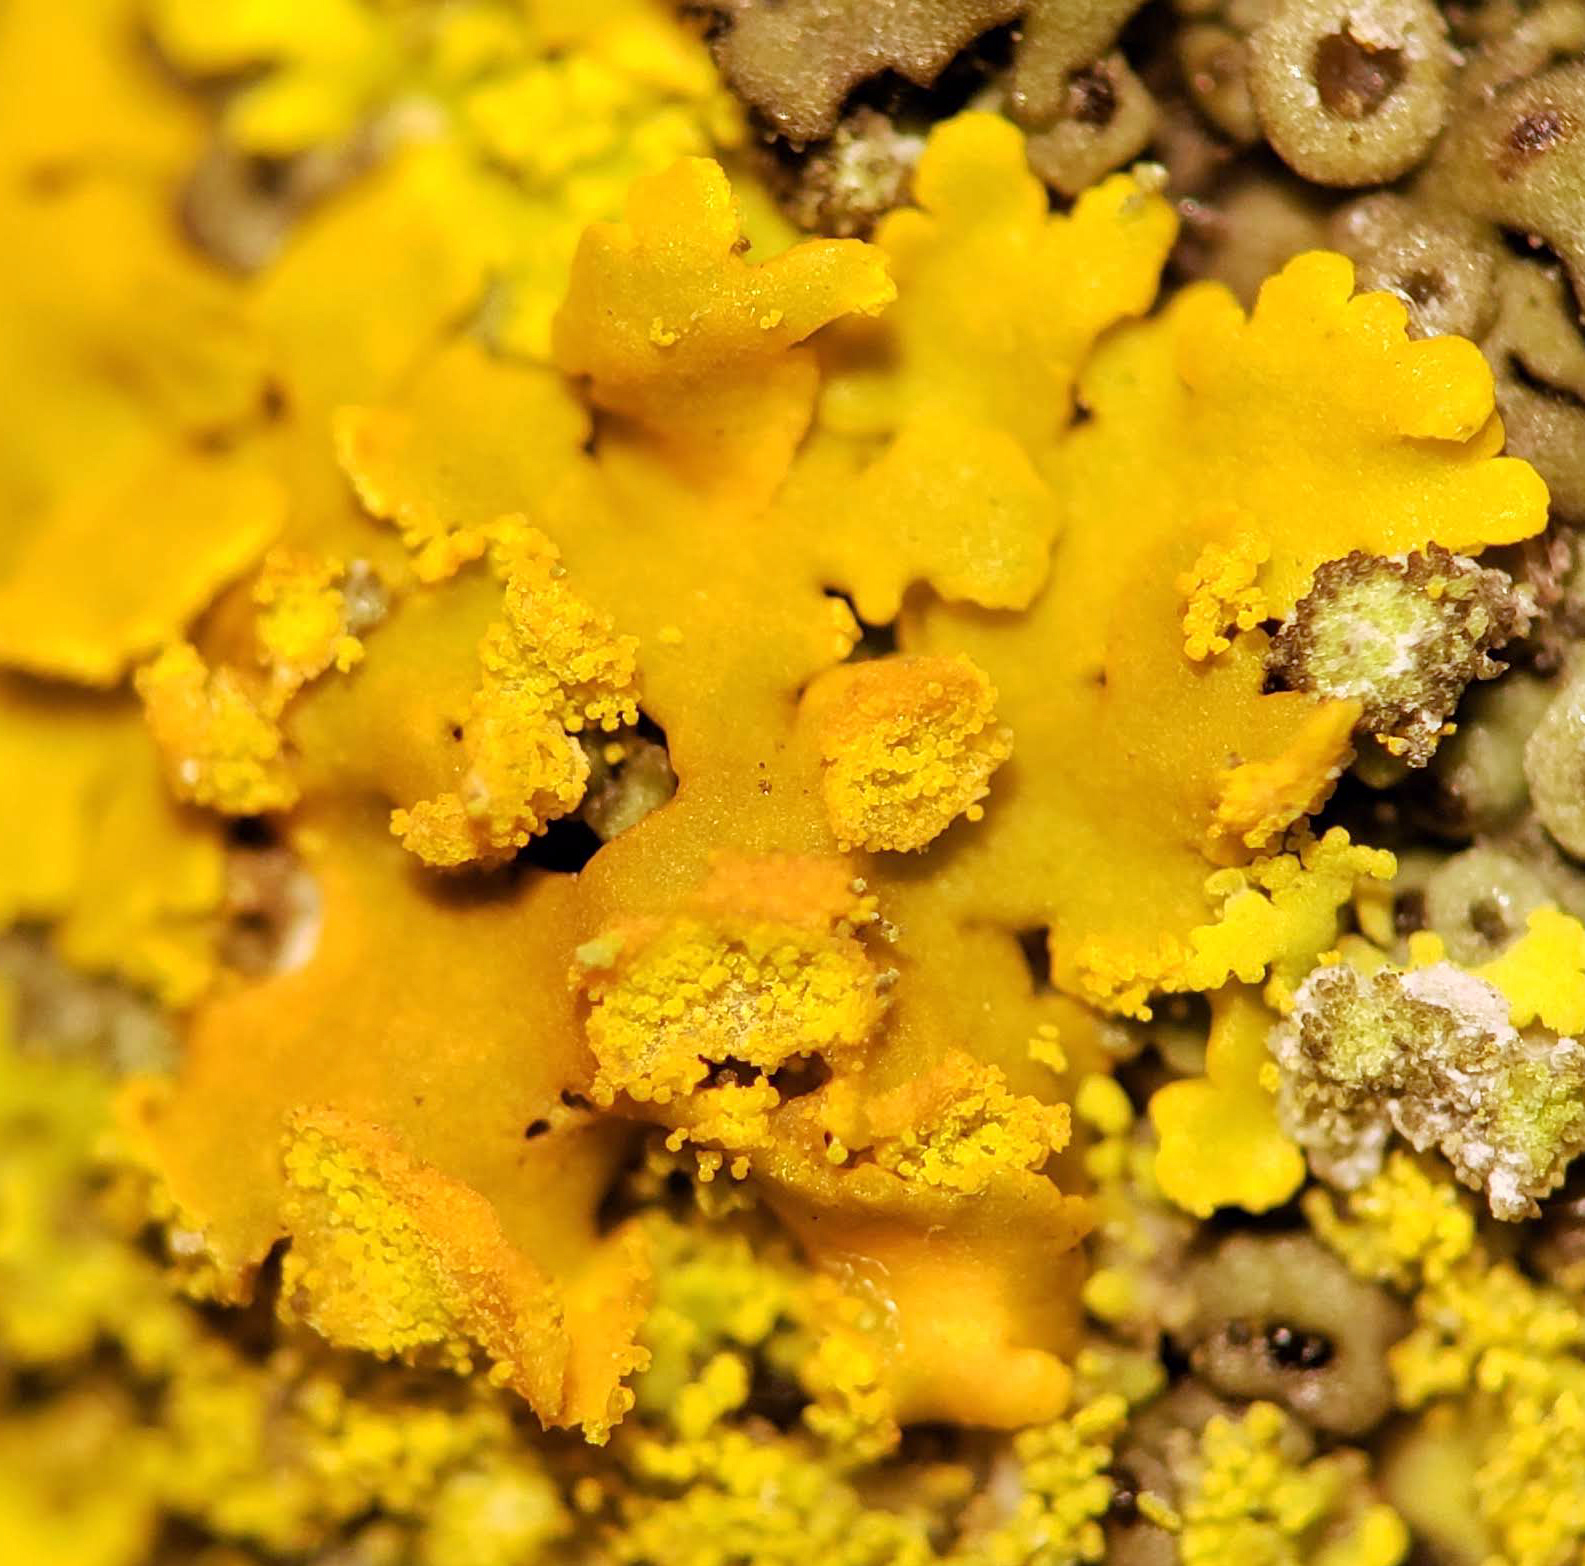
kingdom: Fungi
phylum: Ascomycota
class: Lecanoromycetes
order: Teloschistales
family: Teloschistaceae
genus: Oxneria
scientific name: Oxneria fallax
